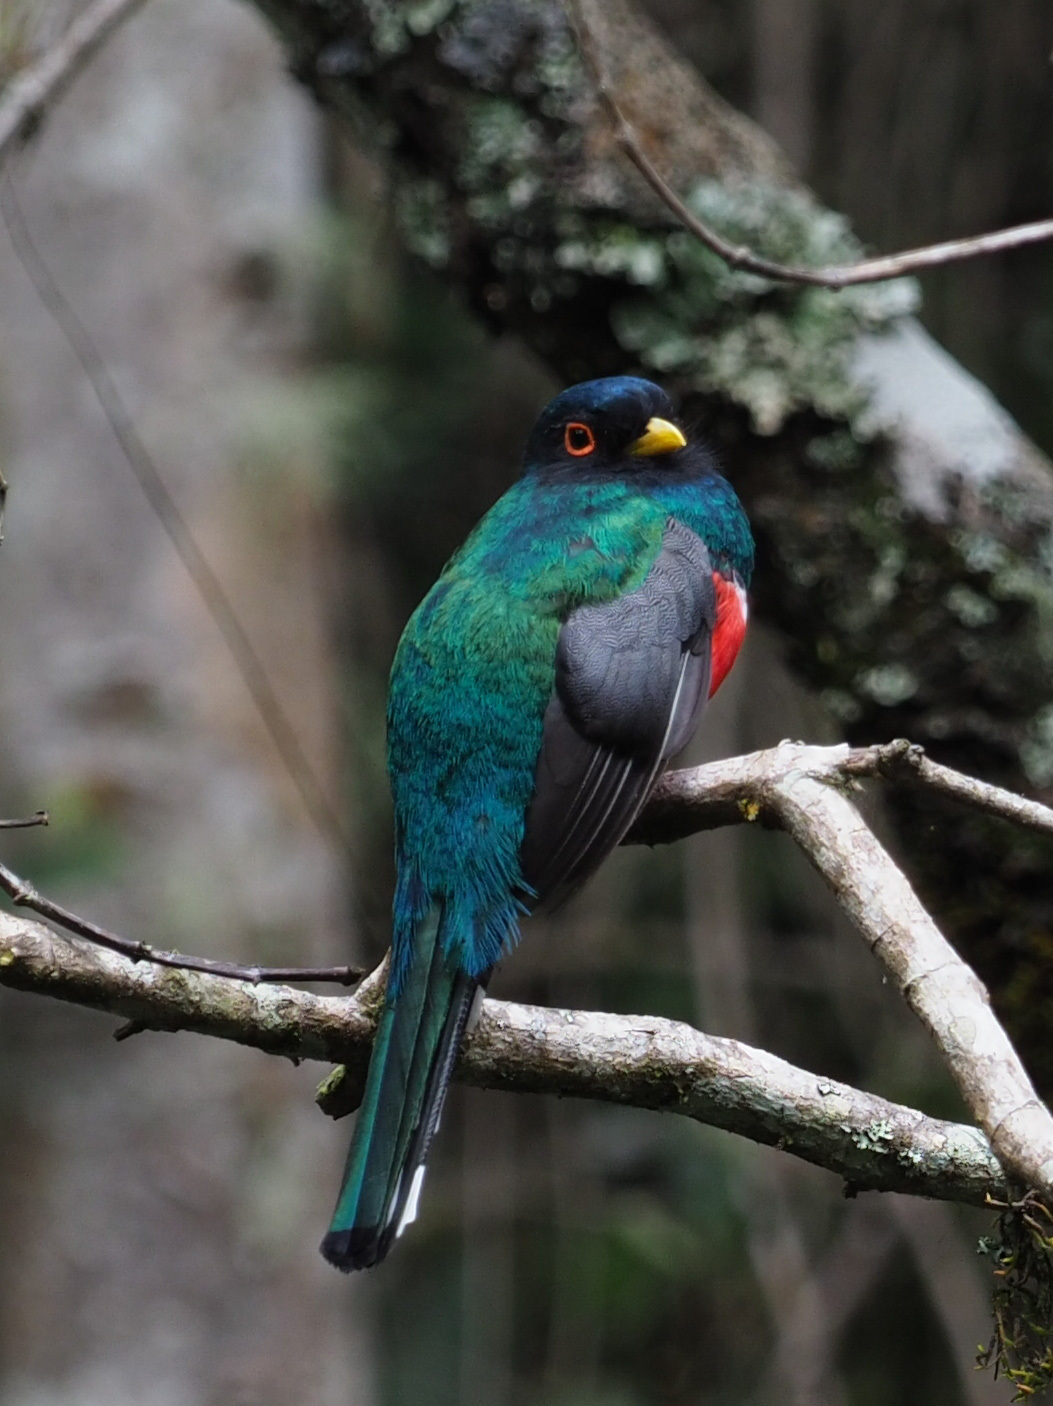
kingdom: Animalia
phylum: Chordata
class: Aves
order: Trogoniformes
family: Trogonidae
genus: Trogon
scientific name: Trogon personatus
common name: Masked trogon
